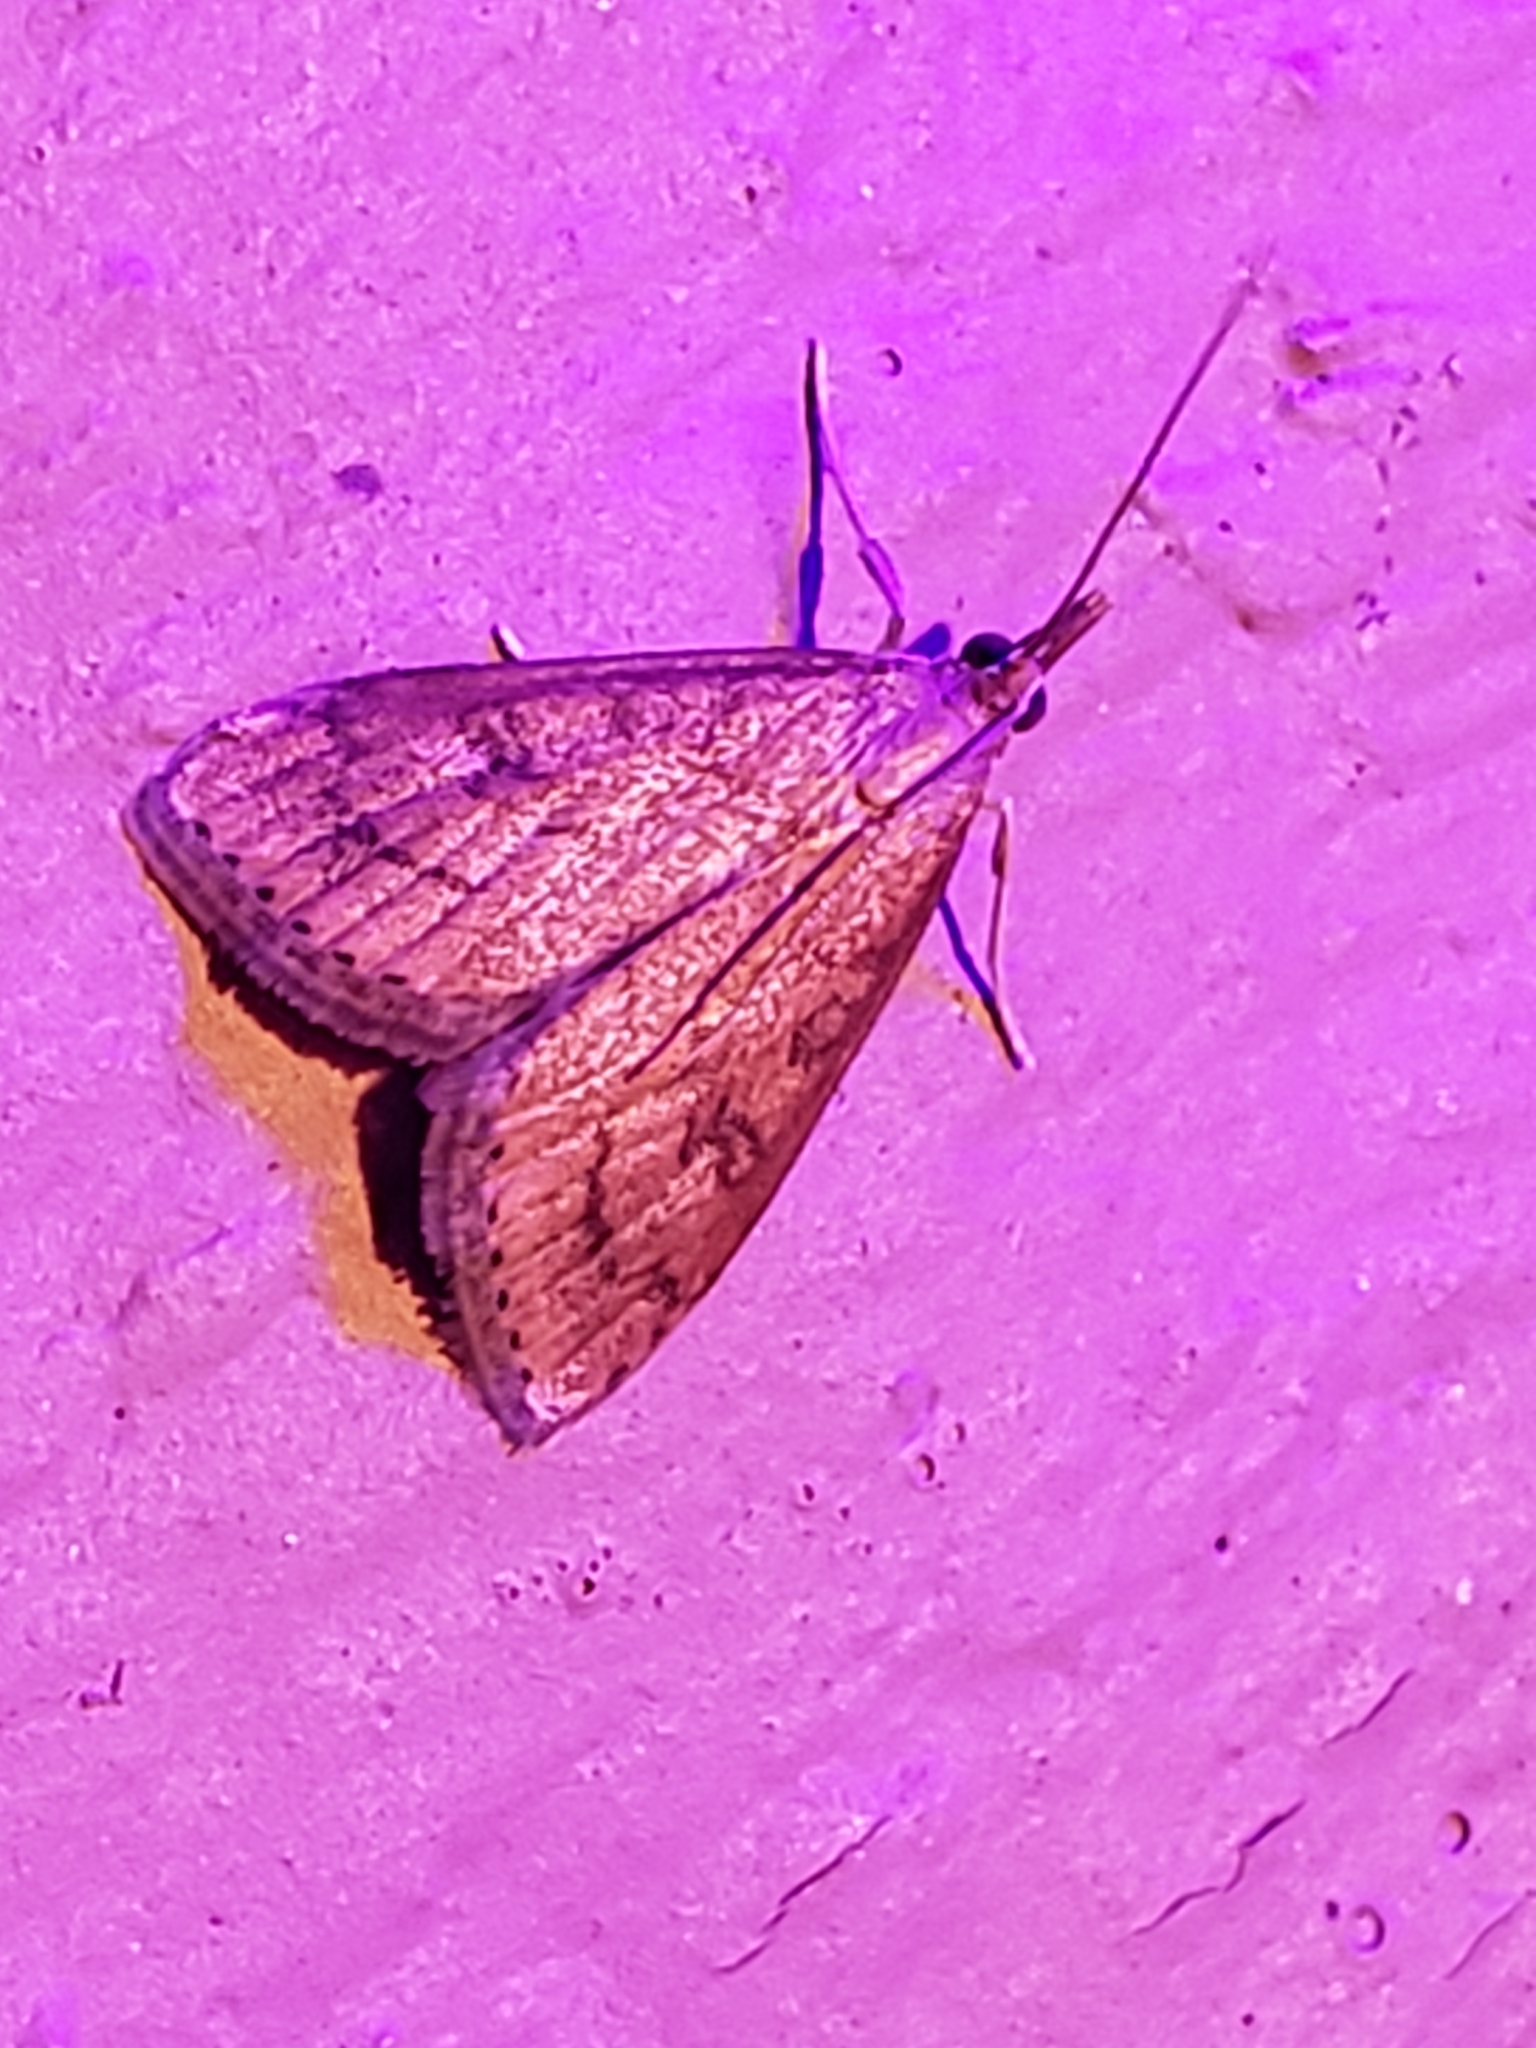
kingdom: Animalia
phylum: Arthropoda
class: Insecta
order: Lepidoptera
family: Crambidae
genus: Udea
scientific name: Udea rubigalis
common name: Celery leaftier moth
